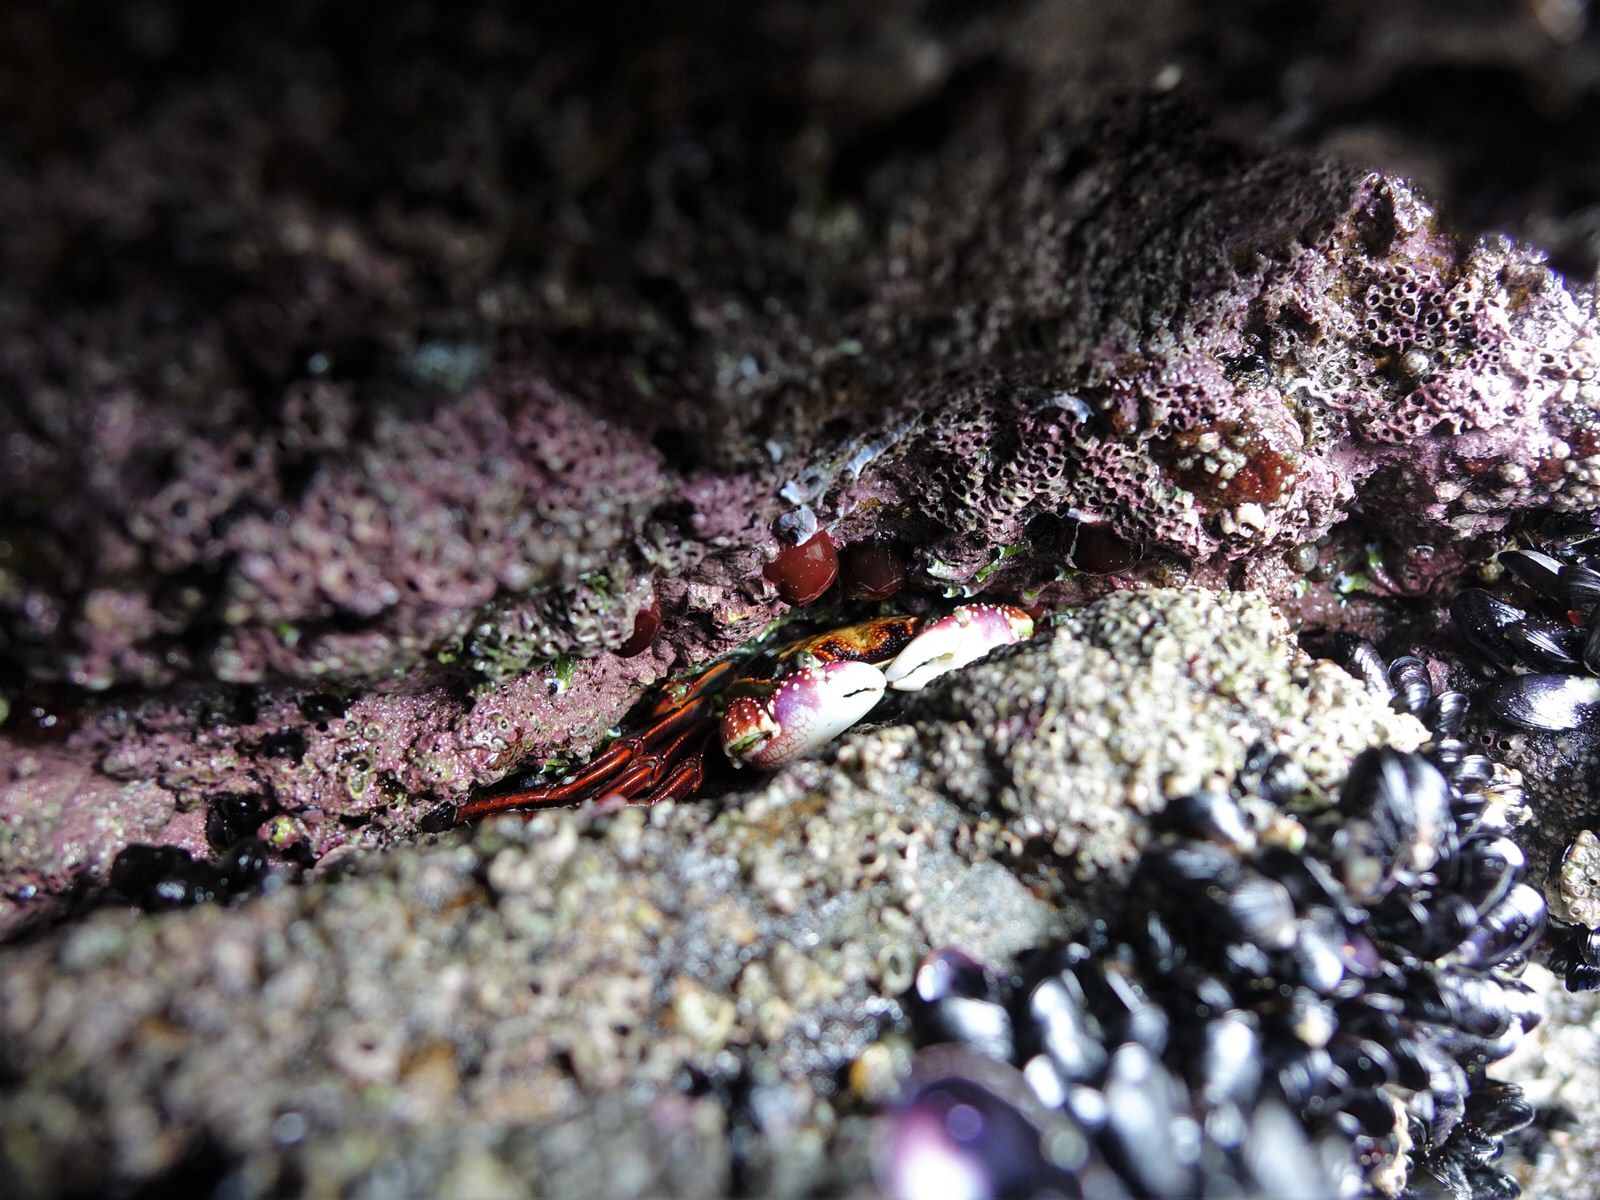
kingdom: Animalia
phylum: Arthropoda
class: Malacostraca
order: Decapoda
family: Grapsidae
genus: Leptograpsus
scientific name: Leptograpsus variegatus
